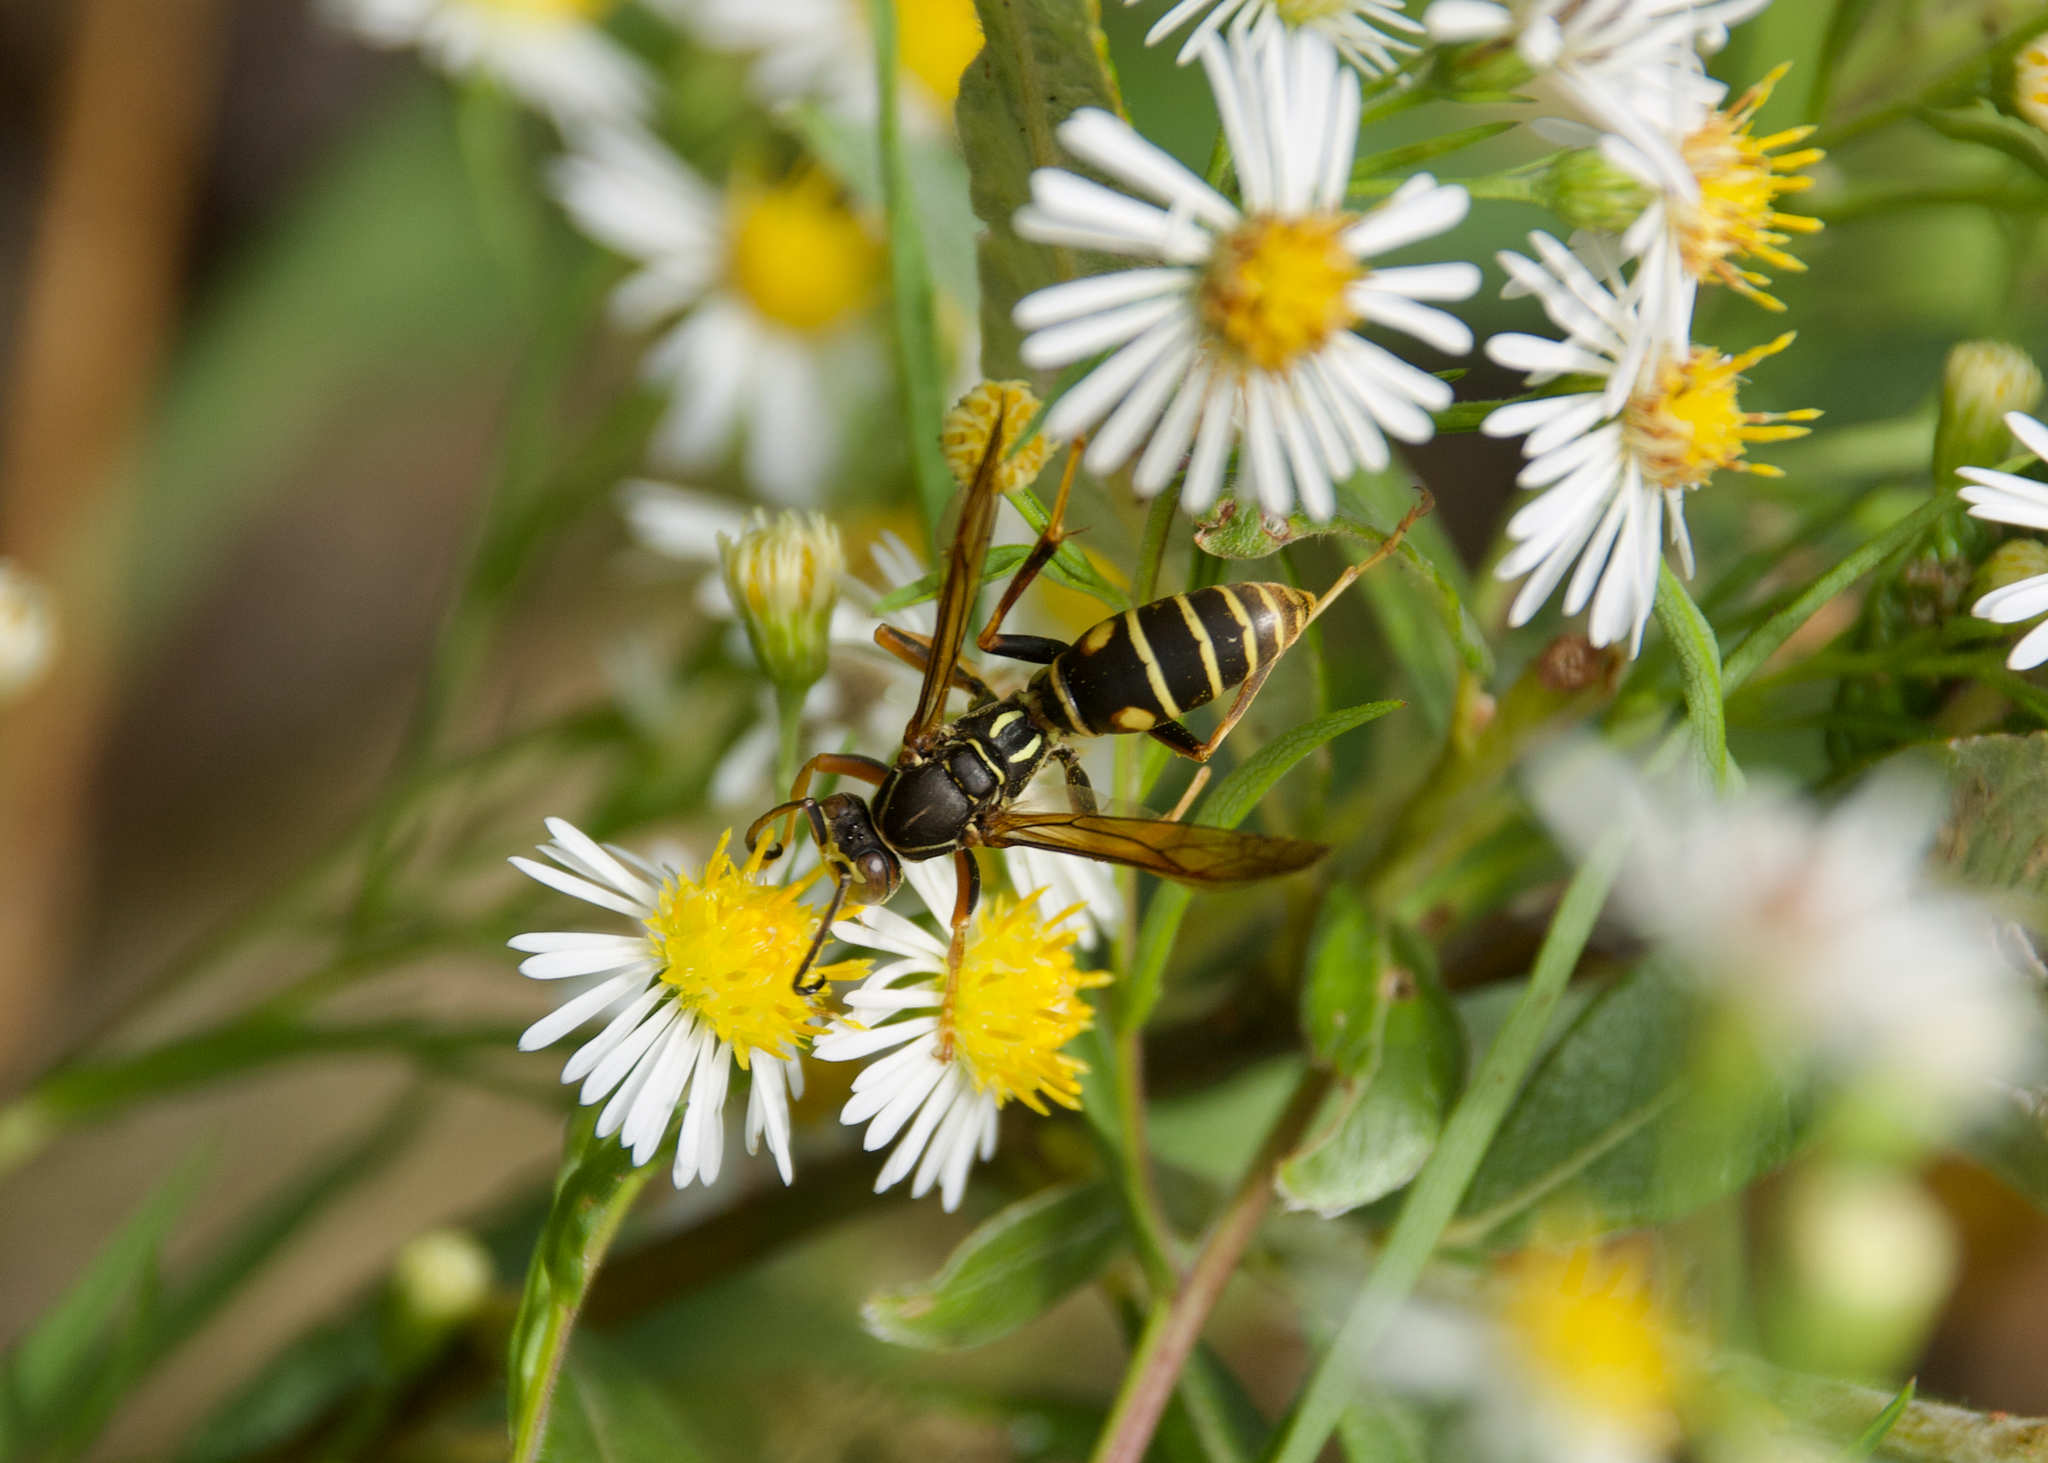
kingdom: Animalia
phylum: Arthropoda
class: Insecta
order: Hymenoptera
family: Eumenidae
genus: Polistes
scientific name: Polistes fuscatus
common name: Dark paper wasp
